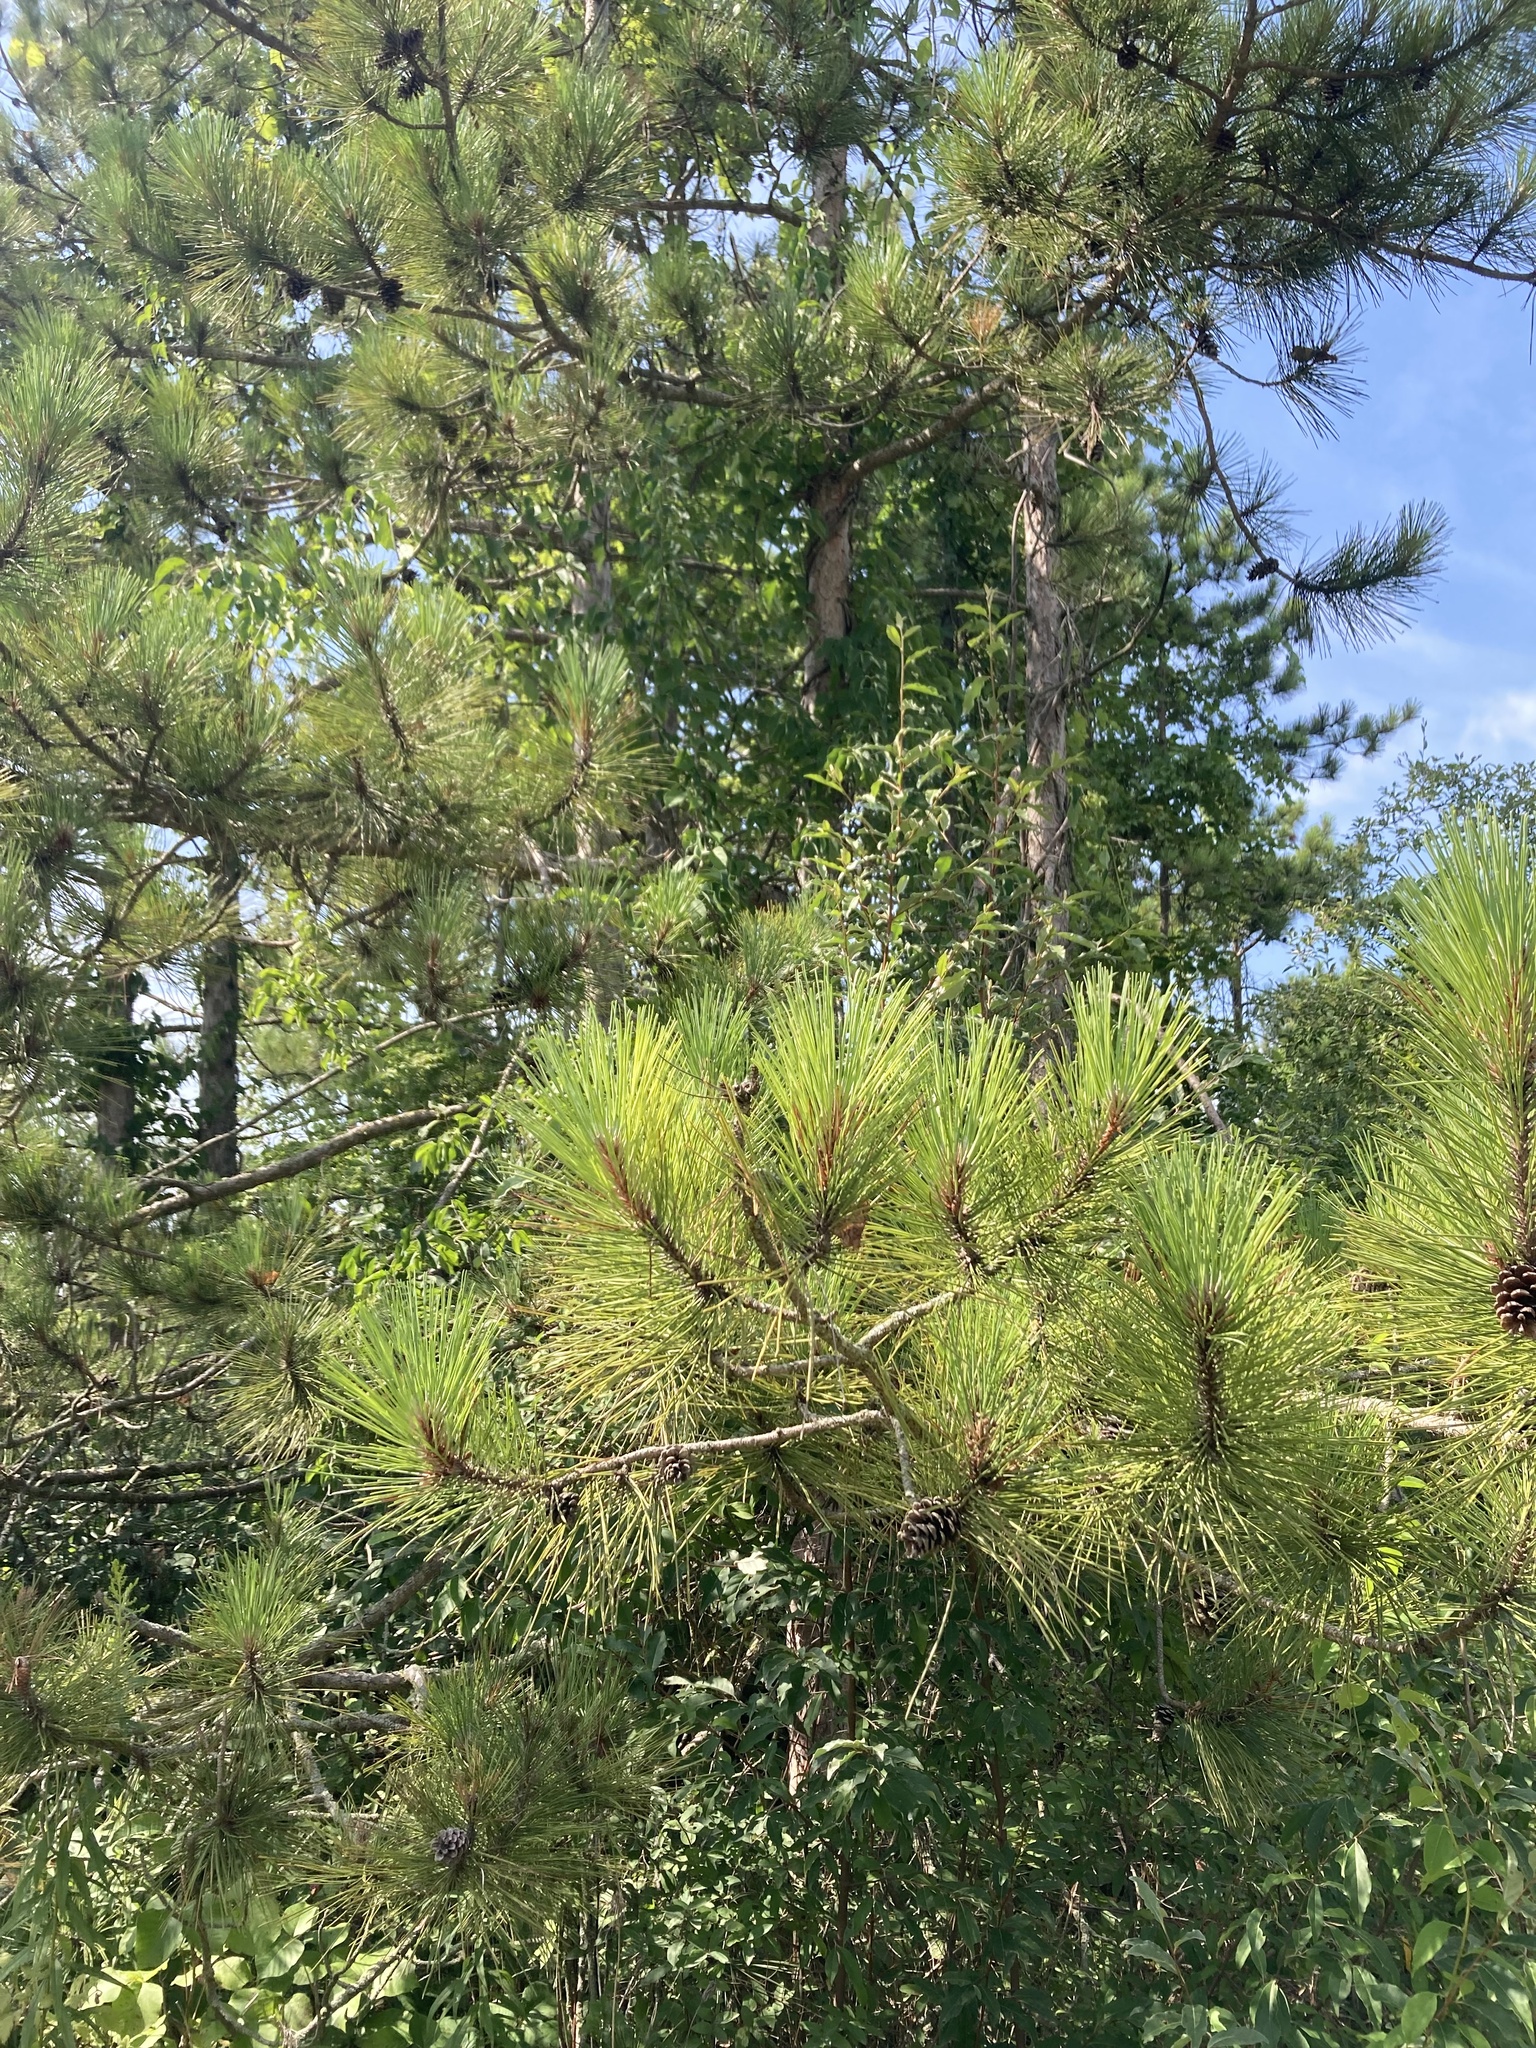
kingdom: Plantae
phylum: Tracheophyta
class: Pinopsida
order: Pinales
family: Pinaceae
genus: Pinus
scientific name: Pinus resinosa
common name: Norway pine
